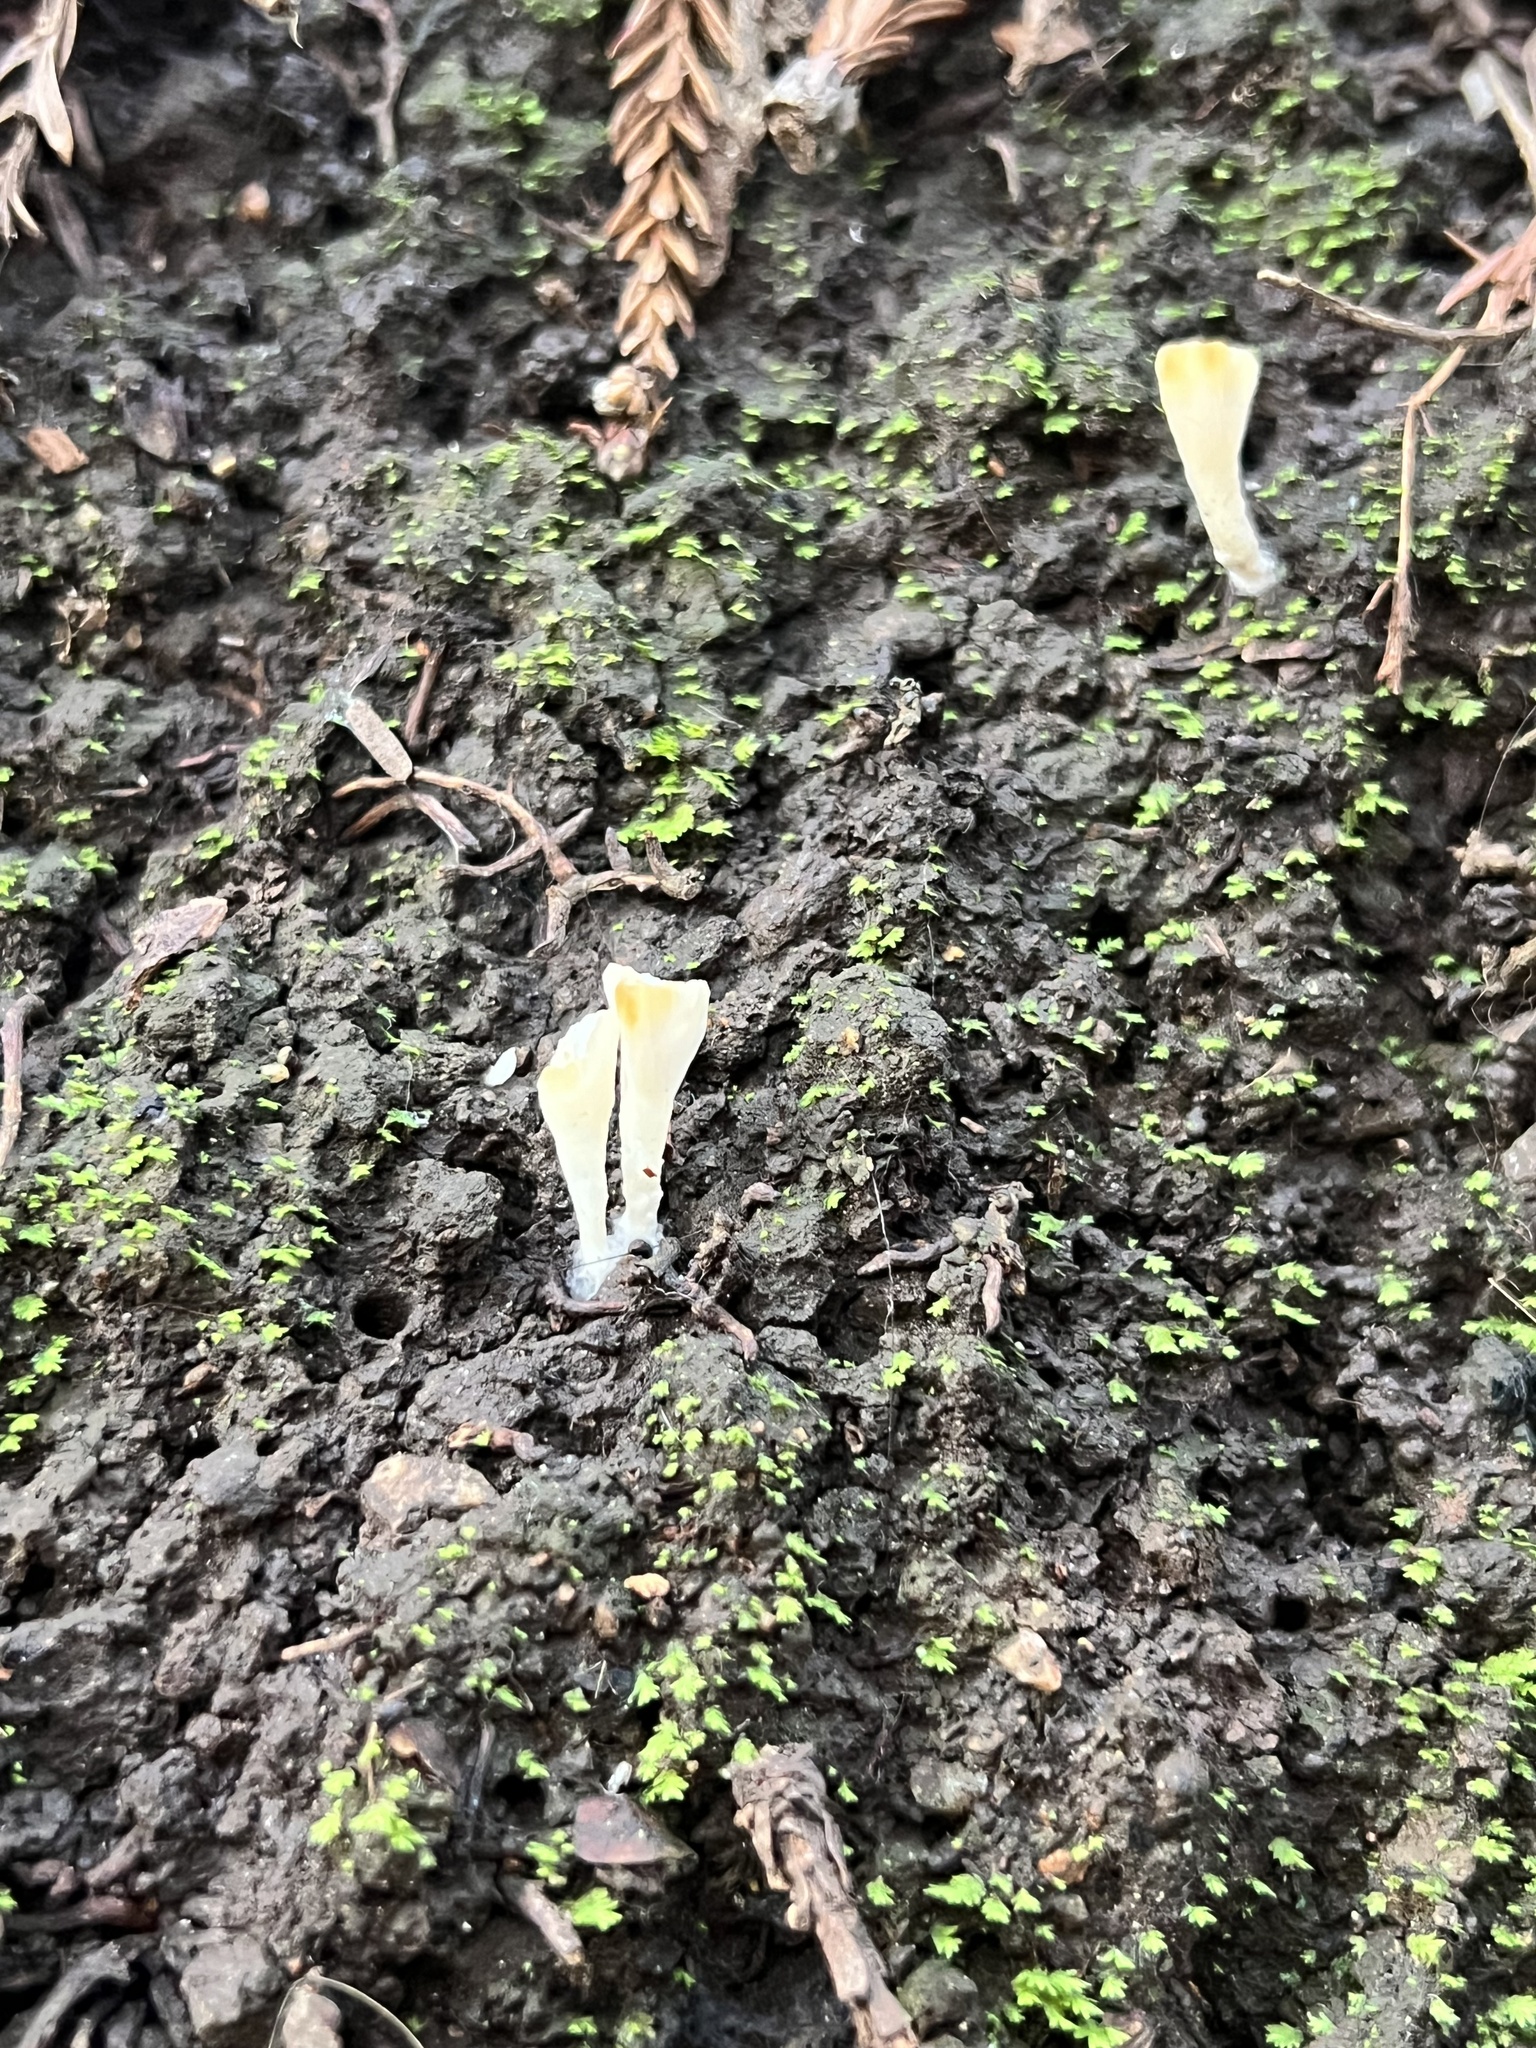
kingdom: Fungi
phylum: Basidiomycota
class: Agaricomycetes
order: Hymenochaetales
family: Rickenellaceae
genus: Cotylidia
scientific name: Cotylidia diaphana
